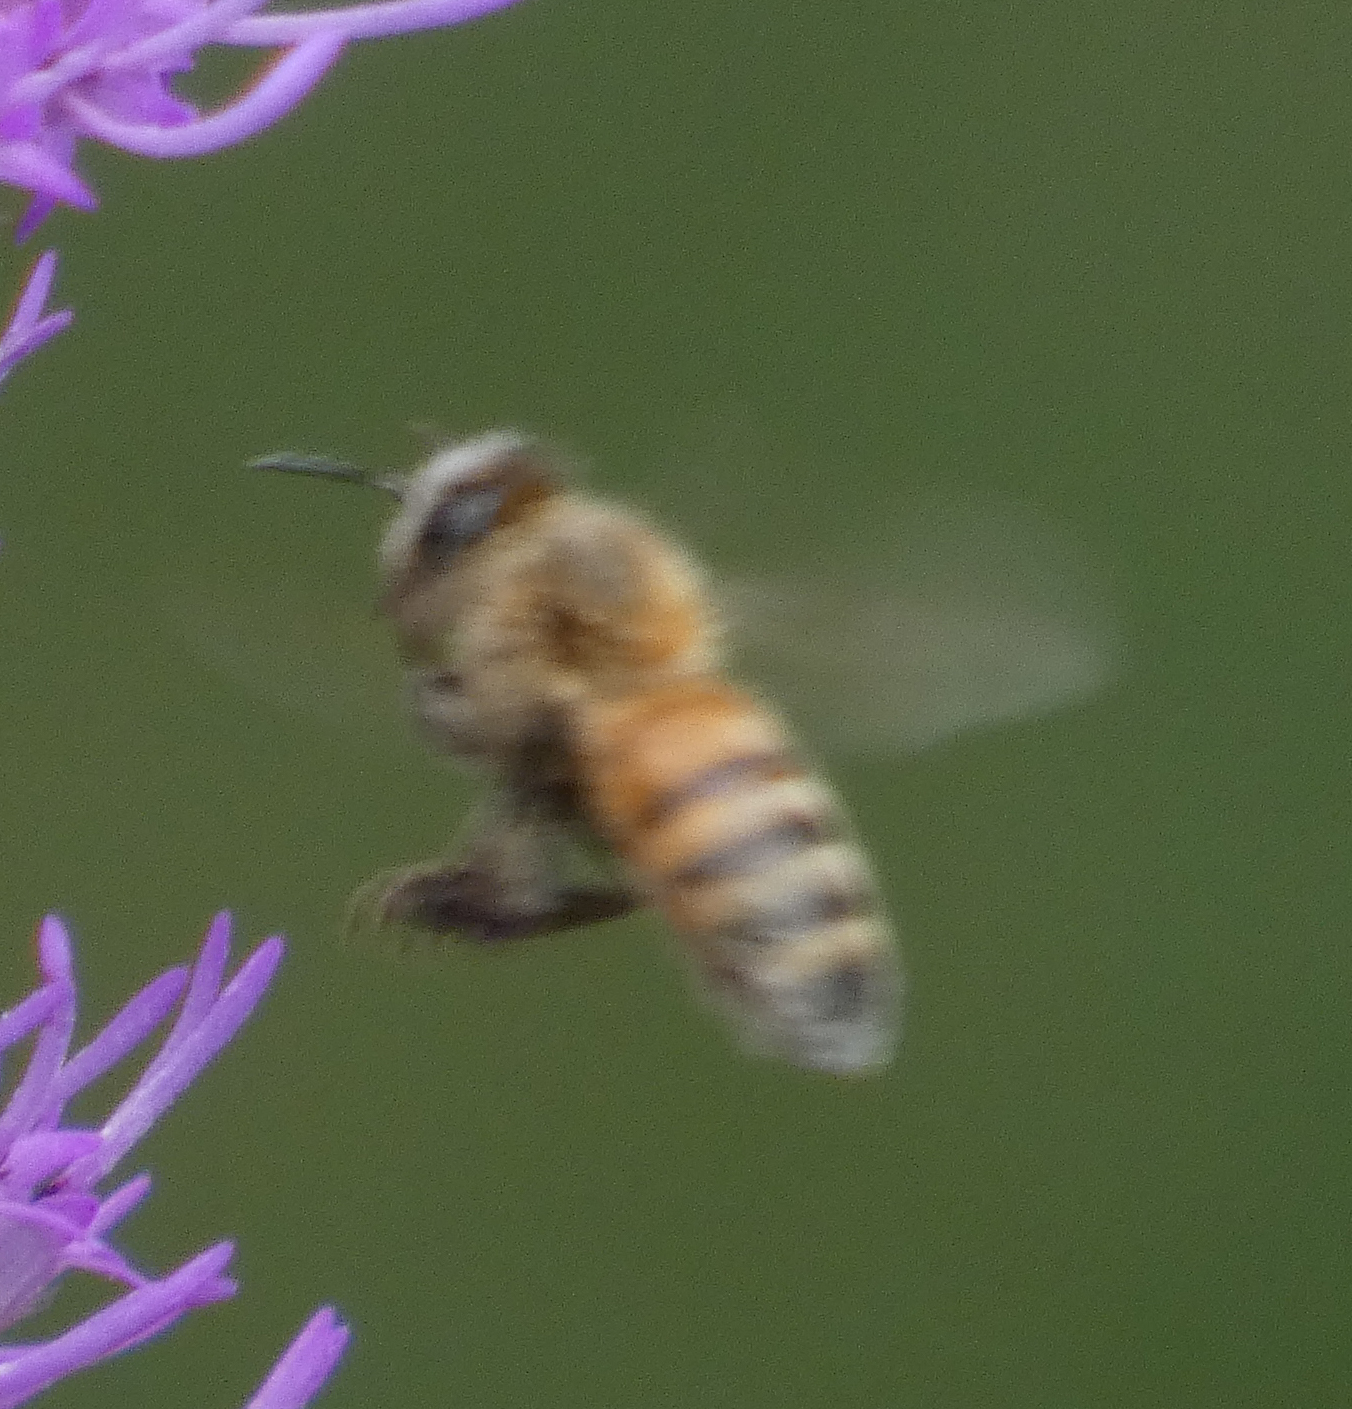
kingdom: Animalia
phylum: Arthropoda
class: Insecta
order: Hymenoptera
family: Apidae
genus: Apis
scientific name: Apis mellifera
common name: Honey bee
